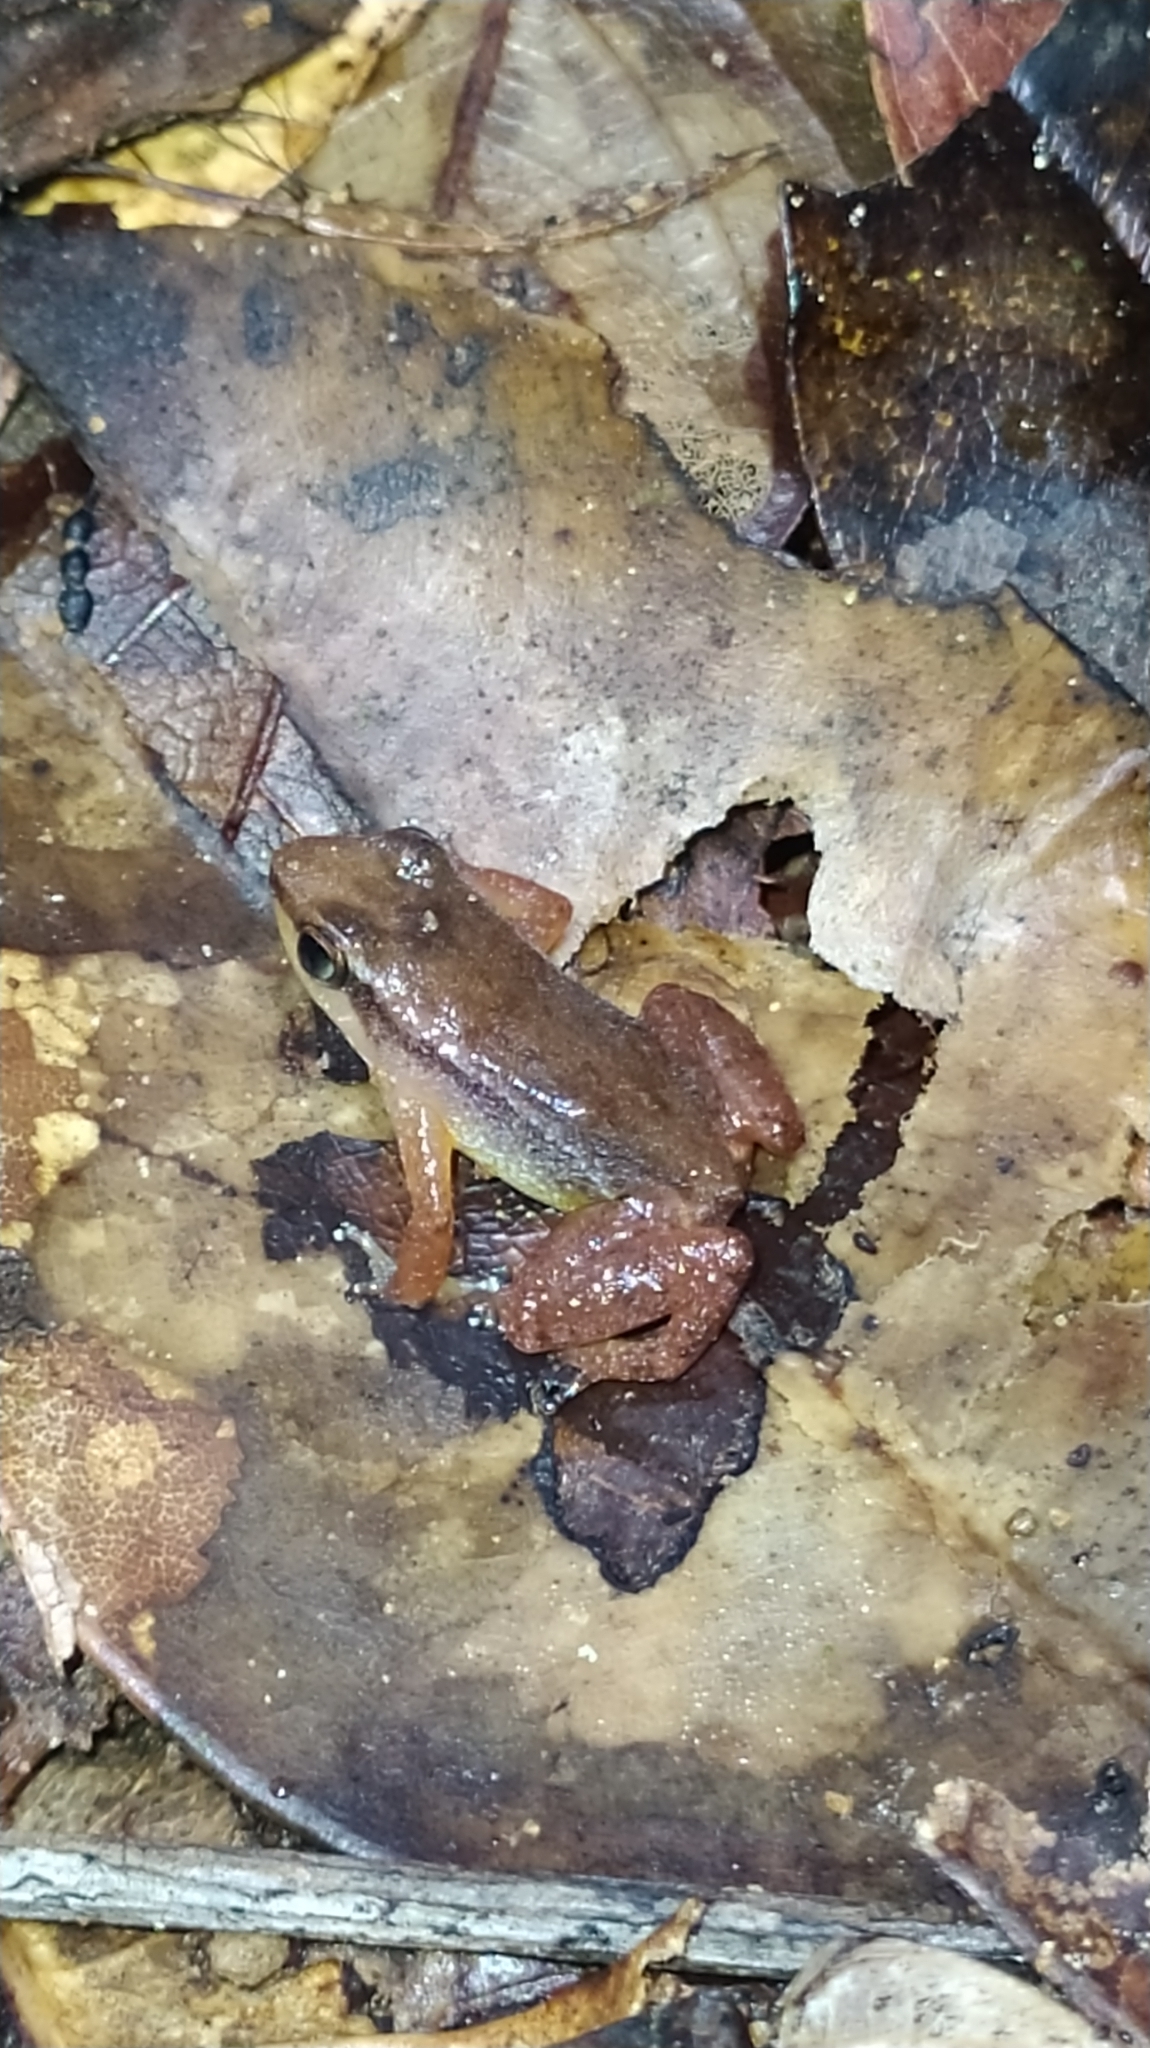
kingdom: Animalia
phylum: Chordata
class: Amphibia
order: Anura
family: Aromobatidae
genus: Anomaloglossus
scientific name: Anomaloglossus baeobatrachus
